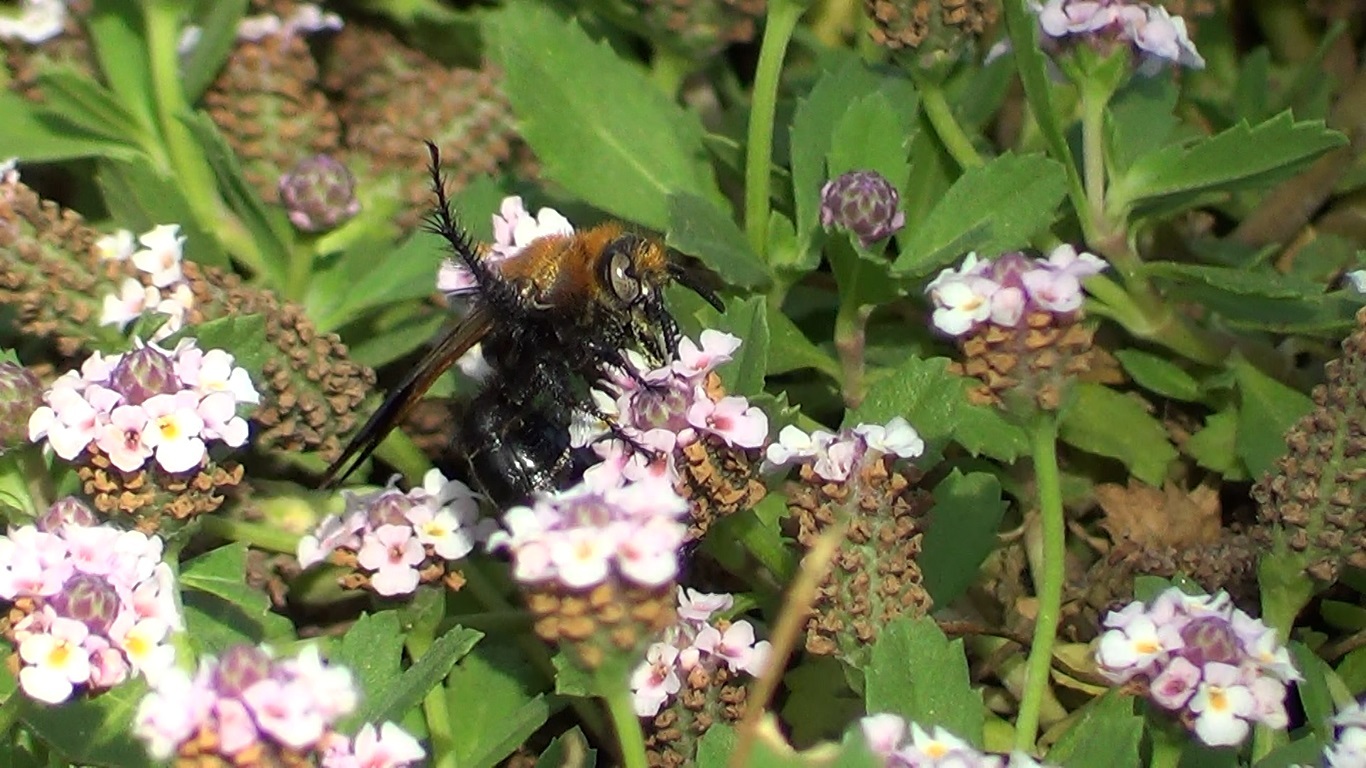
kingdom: Animalia
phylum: Arthropoda
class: Insecta
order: Hymenoptera
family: Scoliidae
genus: Campsomeriella
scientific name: Campsomeriella thoracica
